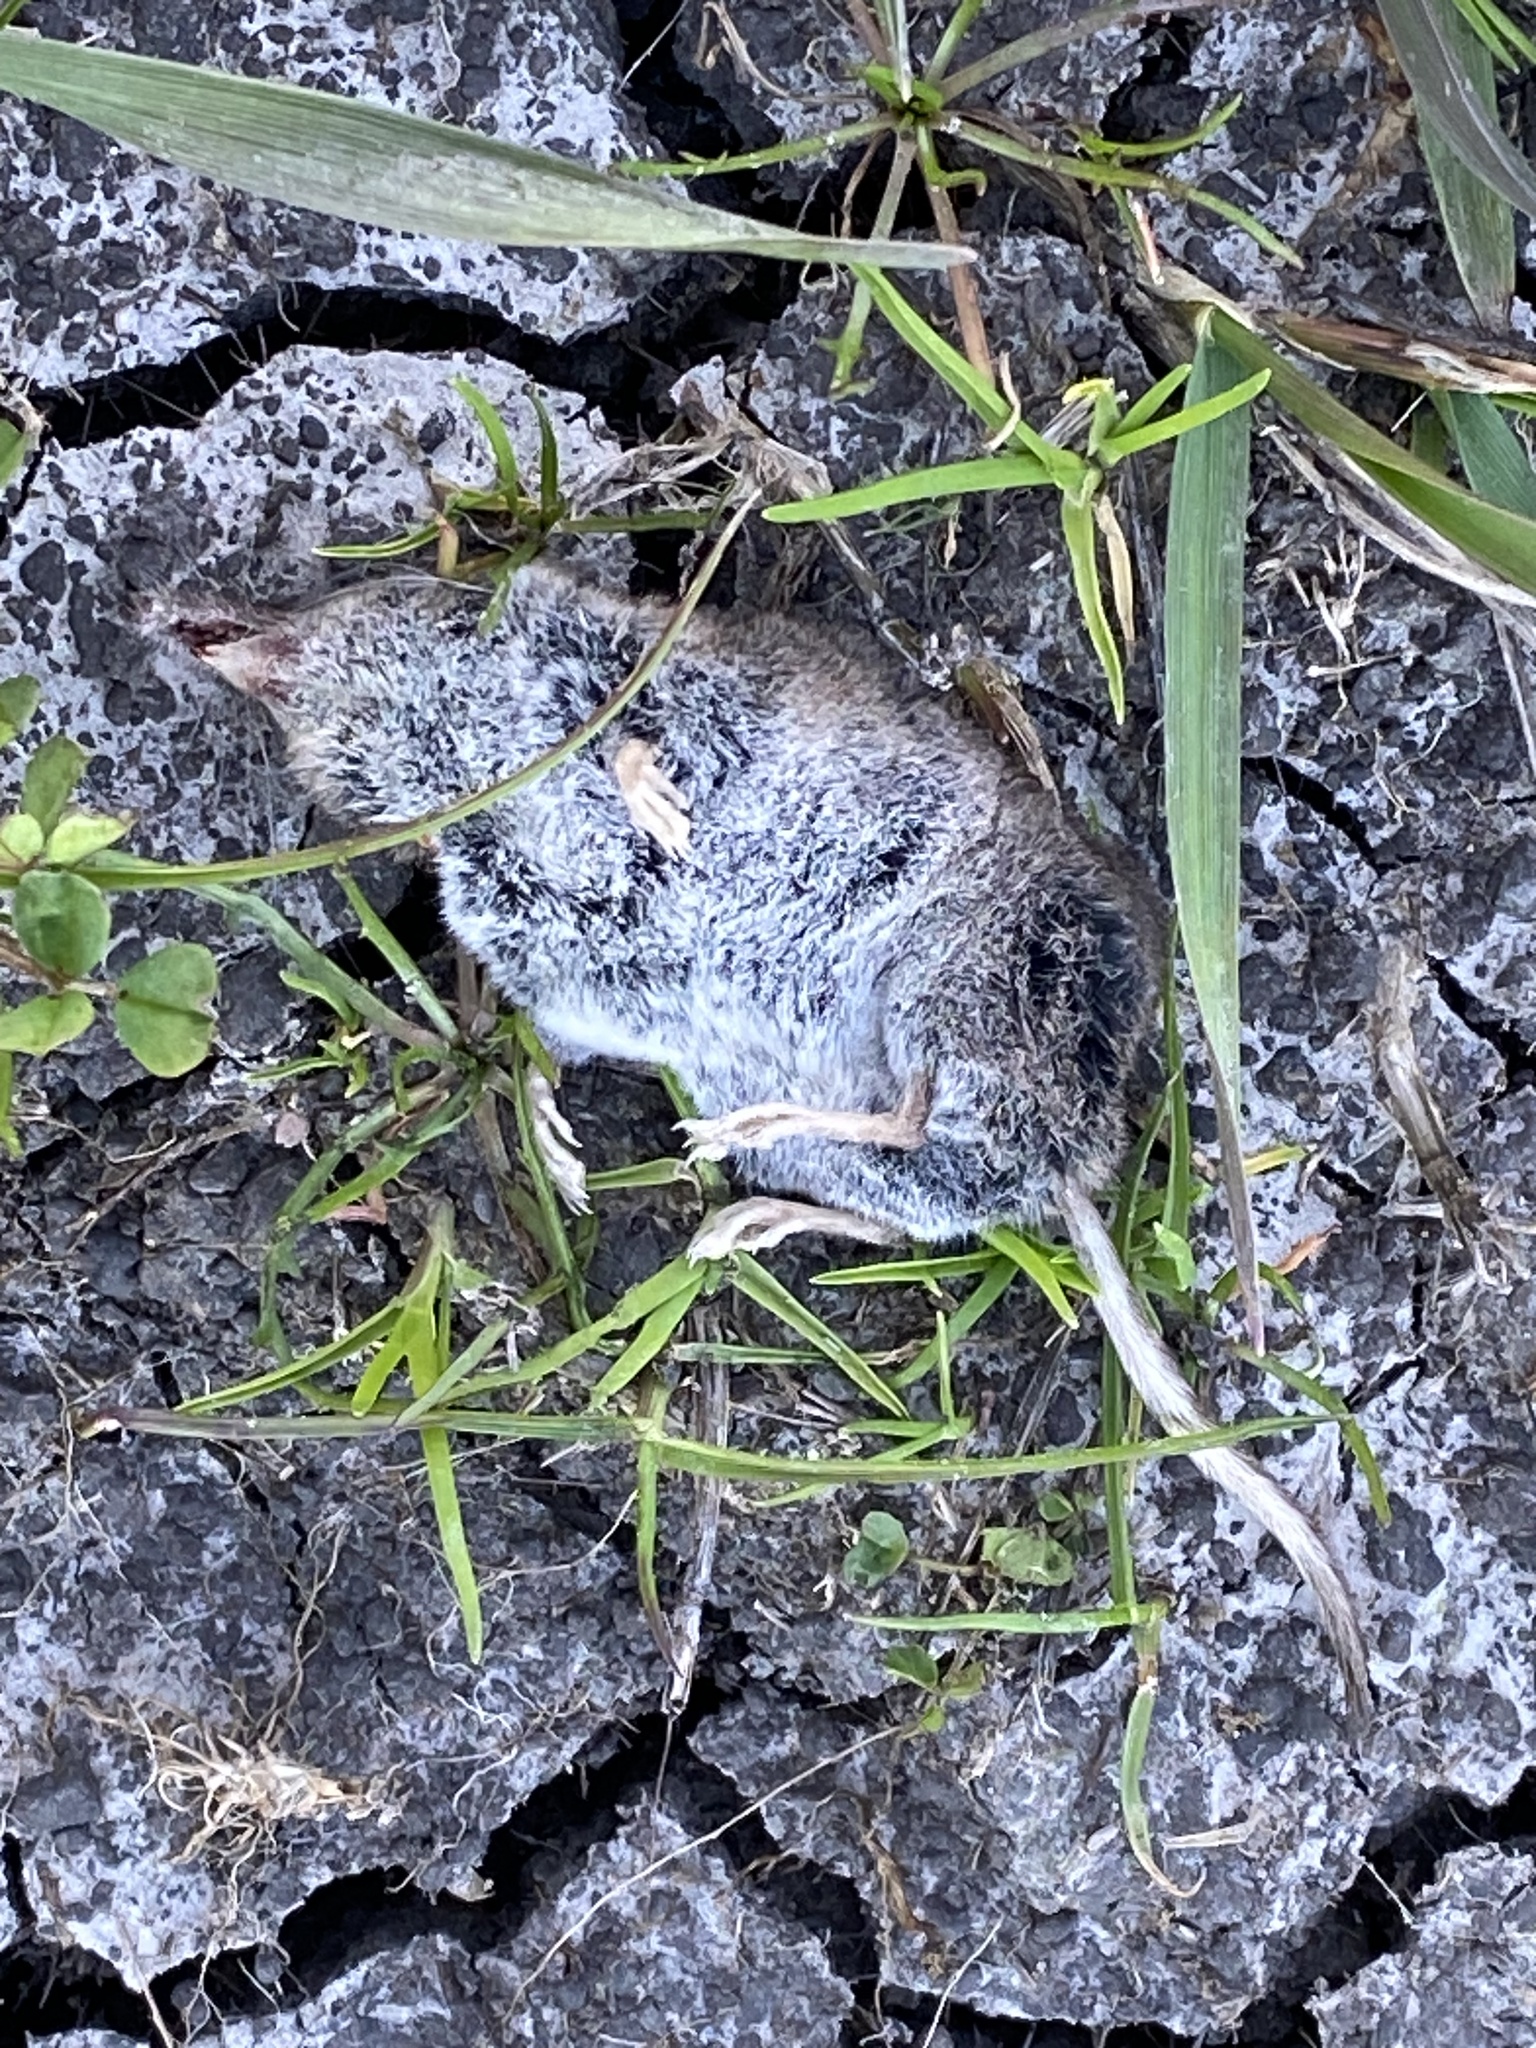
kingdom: Animalia
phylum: Chordata
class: Mammalia
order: Soricomorpha
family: Soricidae
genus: Sorex
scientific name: Sorex ornatus
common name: Ornate shrew
